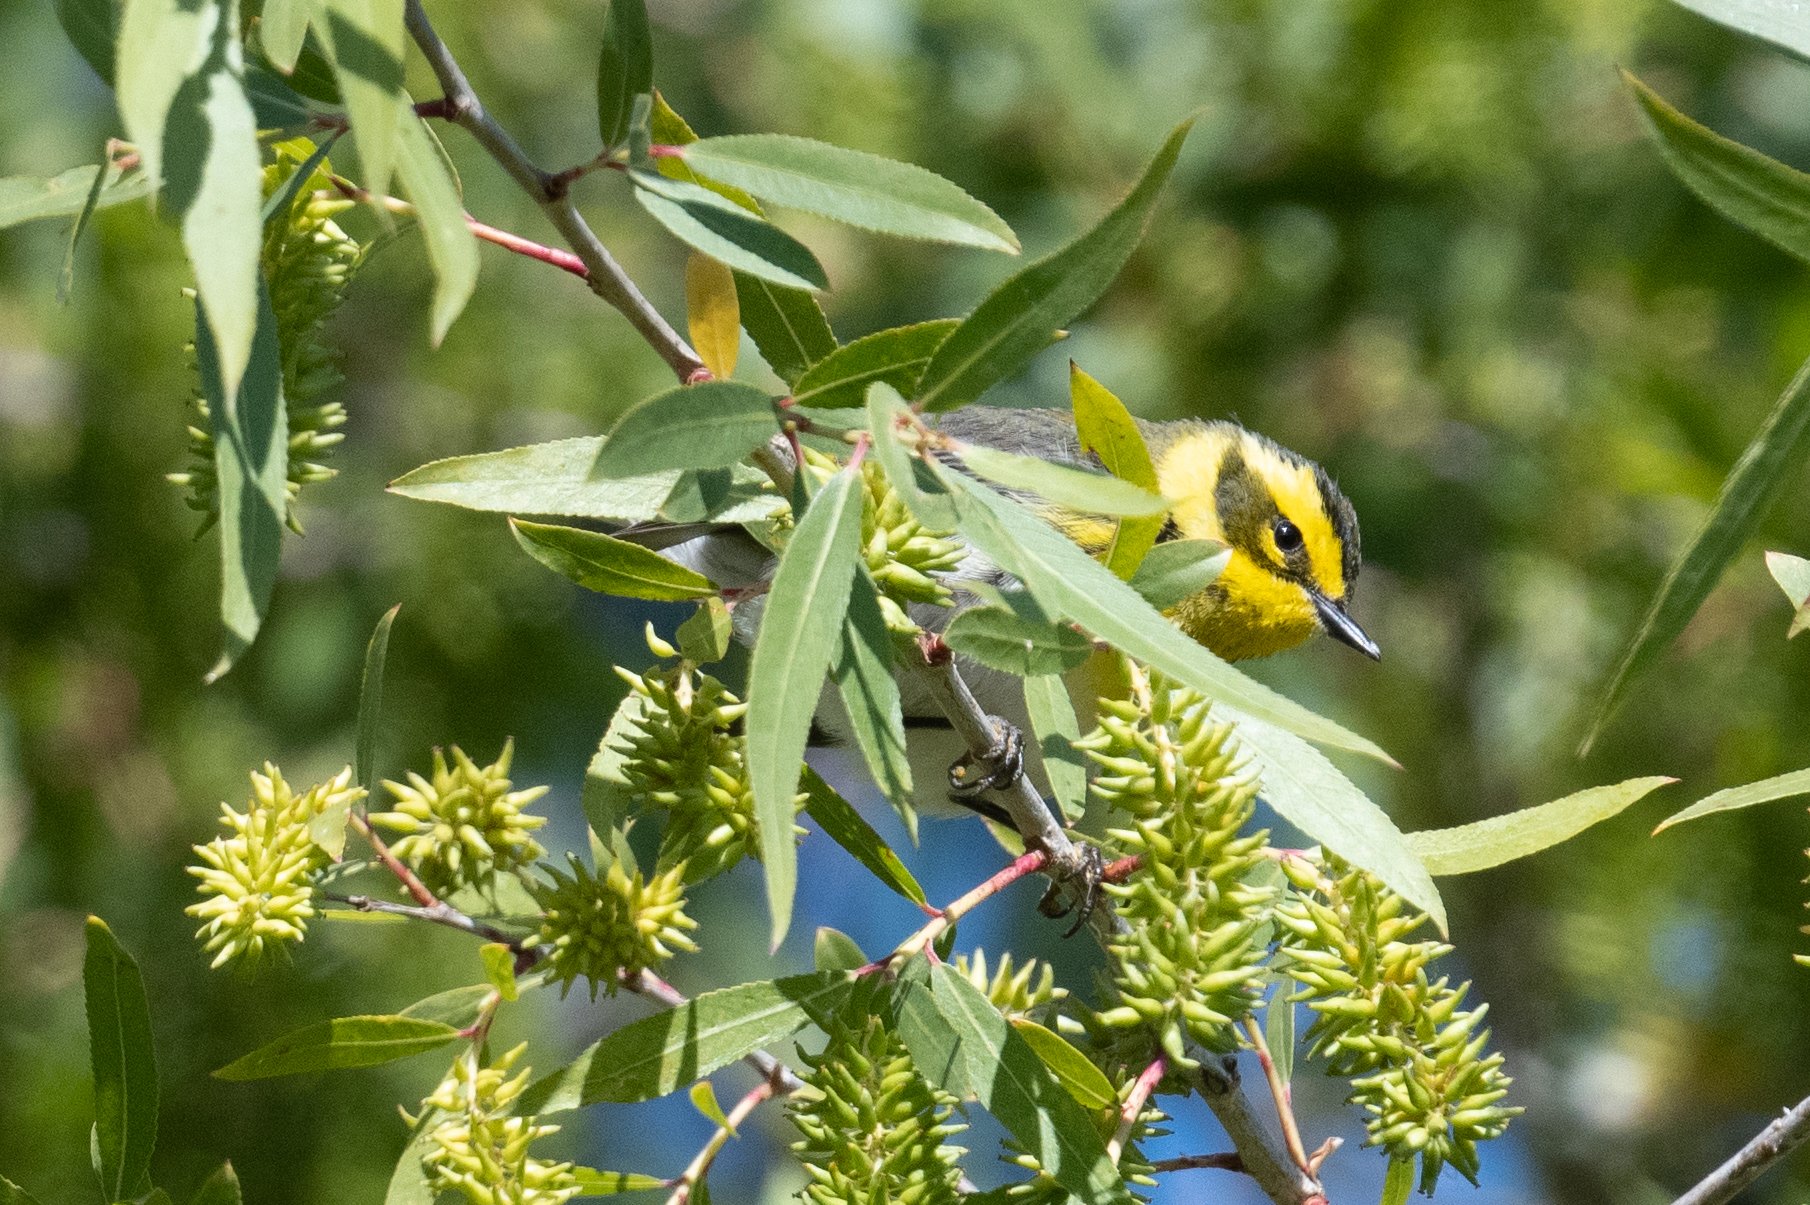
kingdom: Animalia
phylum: Chordata
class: Aves
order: Passeriformes
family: Parulidae
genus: Setophaga
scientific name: Setophaga townsendi
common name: Townsend's warbler
